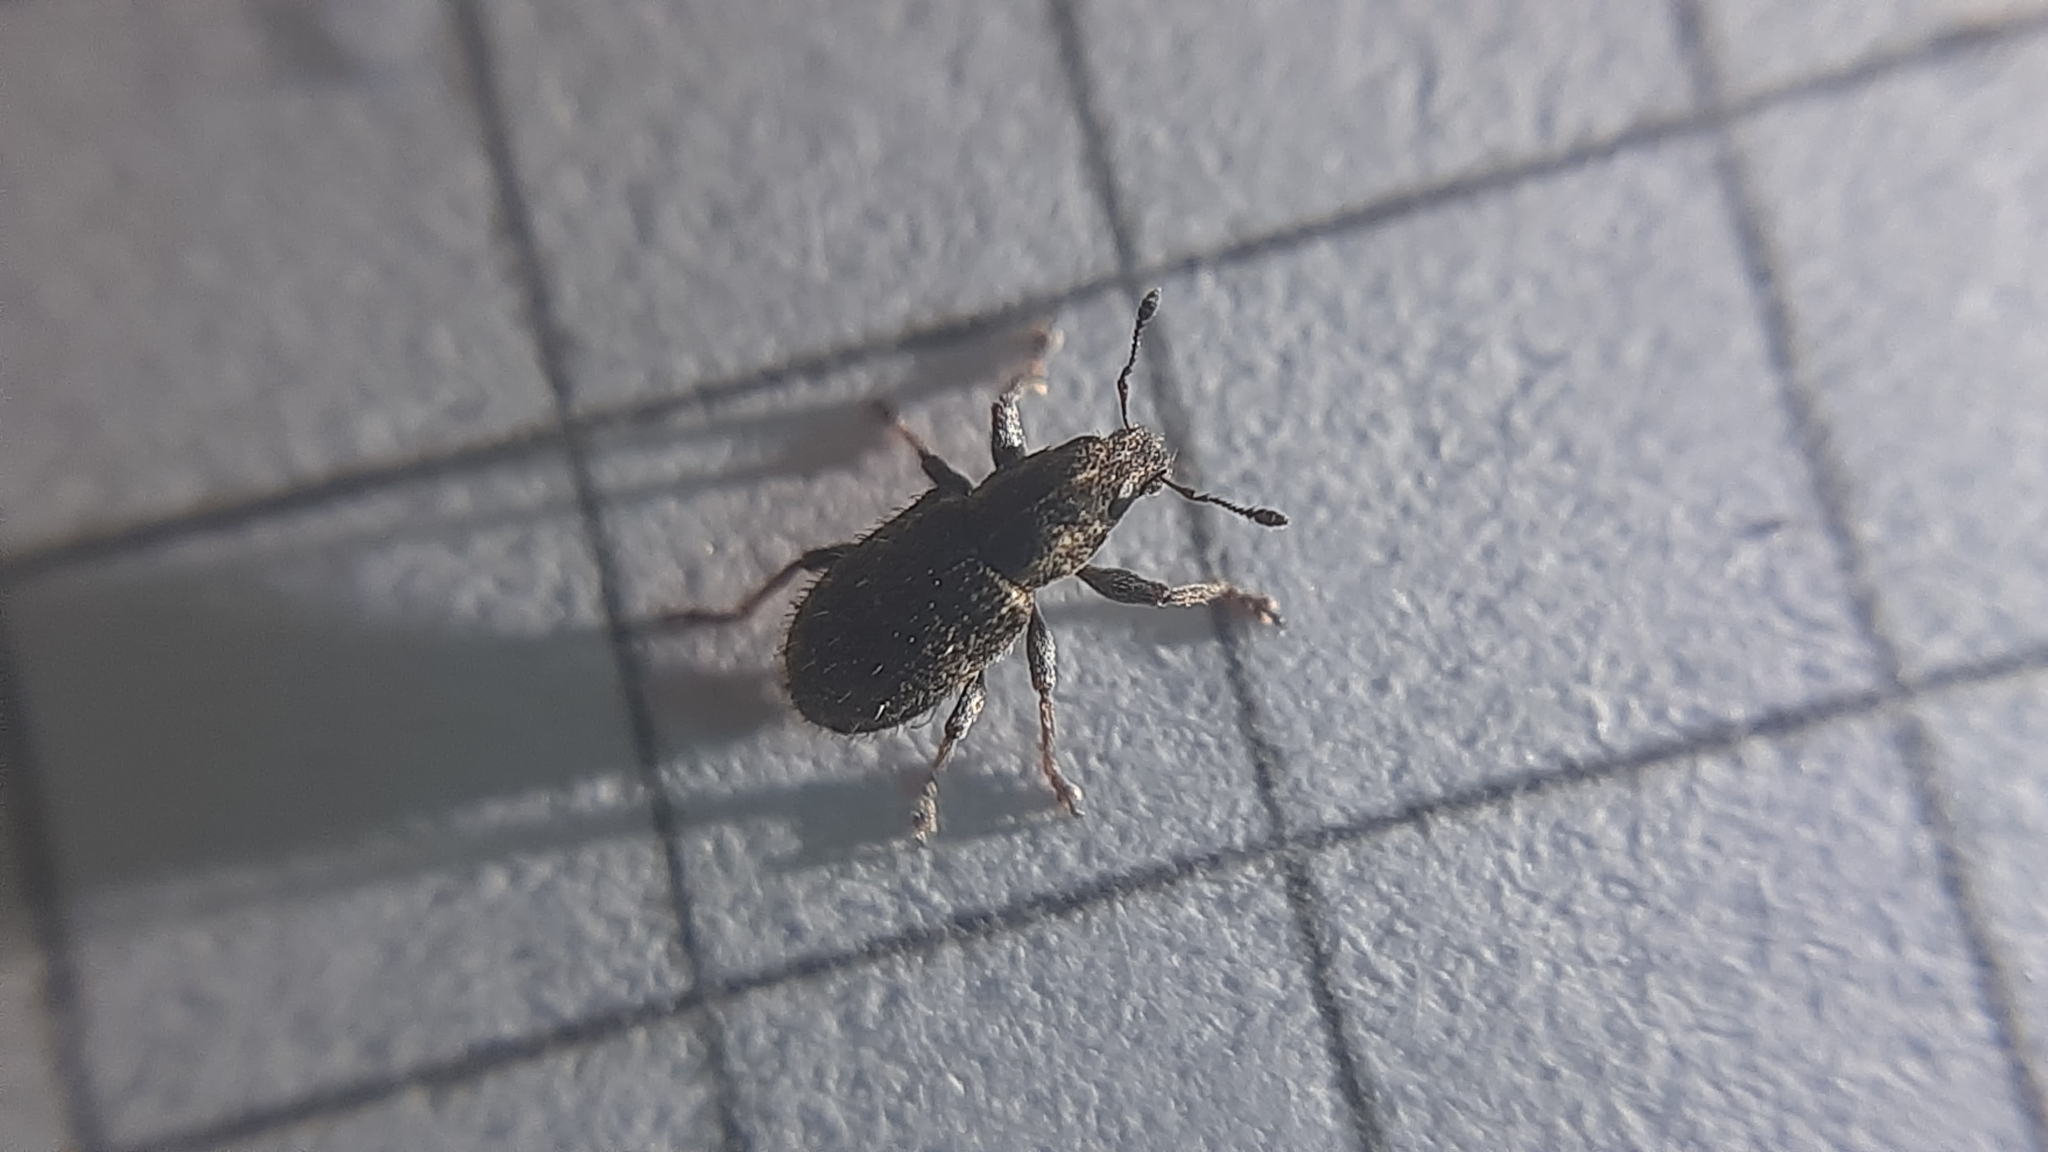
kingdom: Animalia
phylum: Arthropoda
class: Insecta
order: Coleoptera
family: Curculionidae
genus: Sitona
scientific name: Sitona hispidulus
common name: Clover weevil
